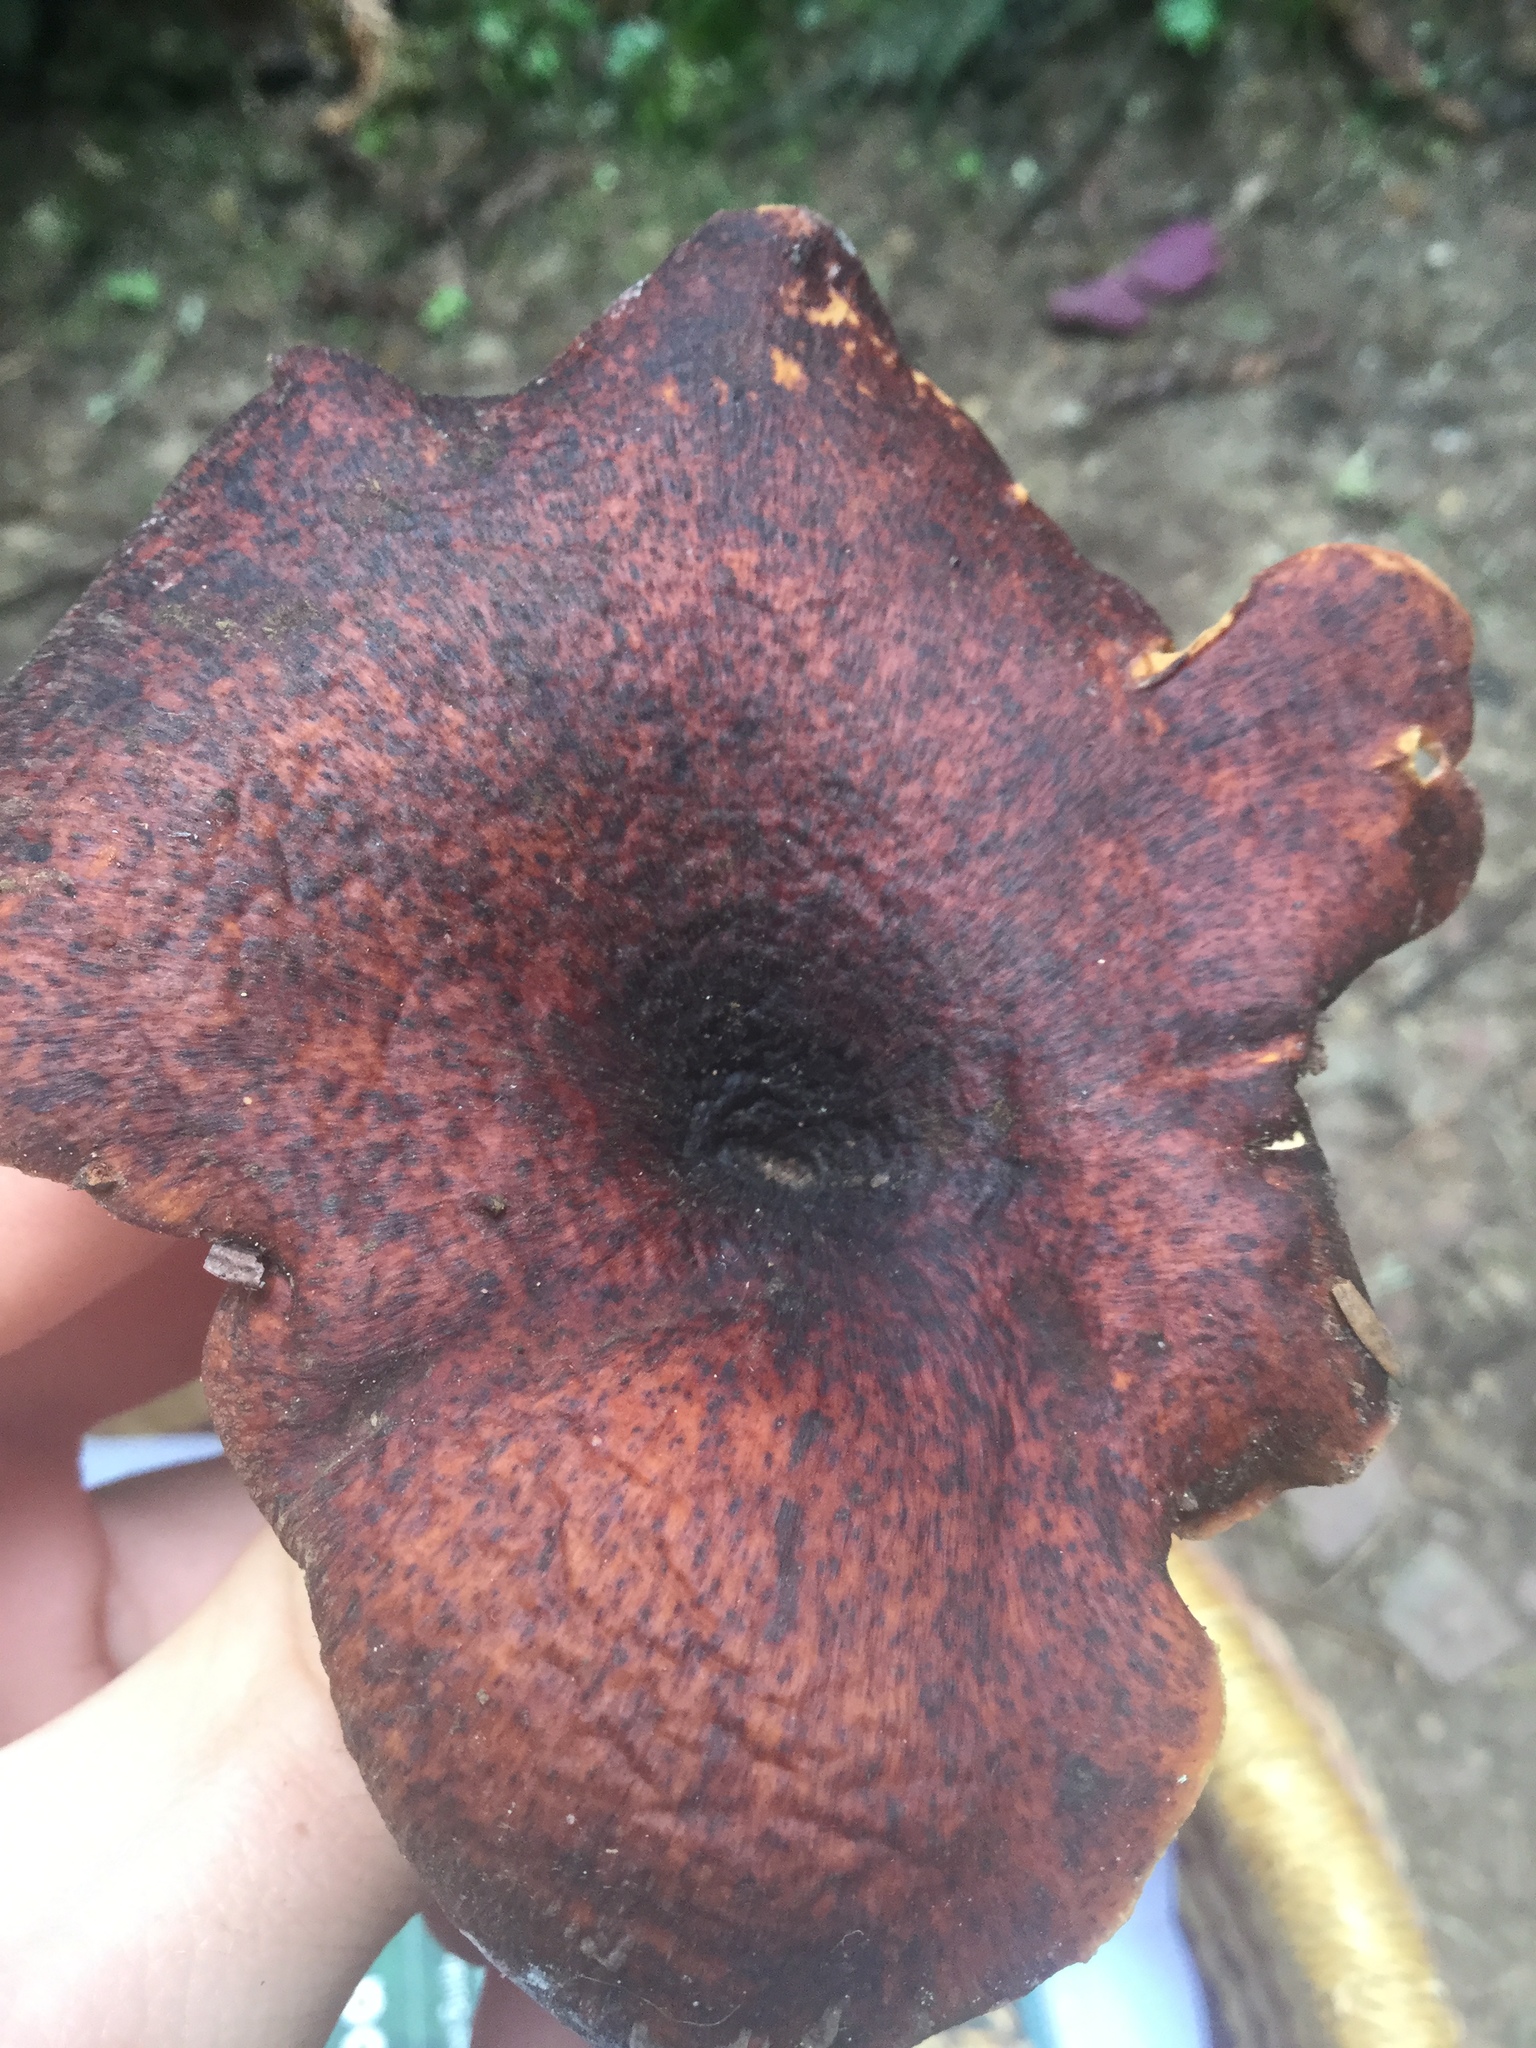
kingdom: Fungi
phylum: Basidiomycota
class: Agaricomycetes
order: Polyporales
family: Polyporaceae
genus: Picipes
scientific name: Picipes badius
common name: Bay polypore
